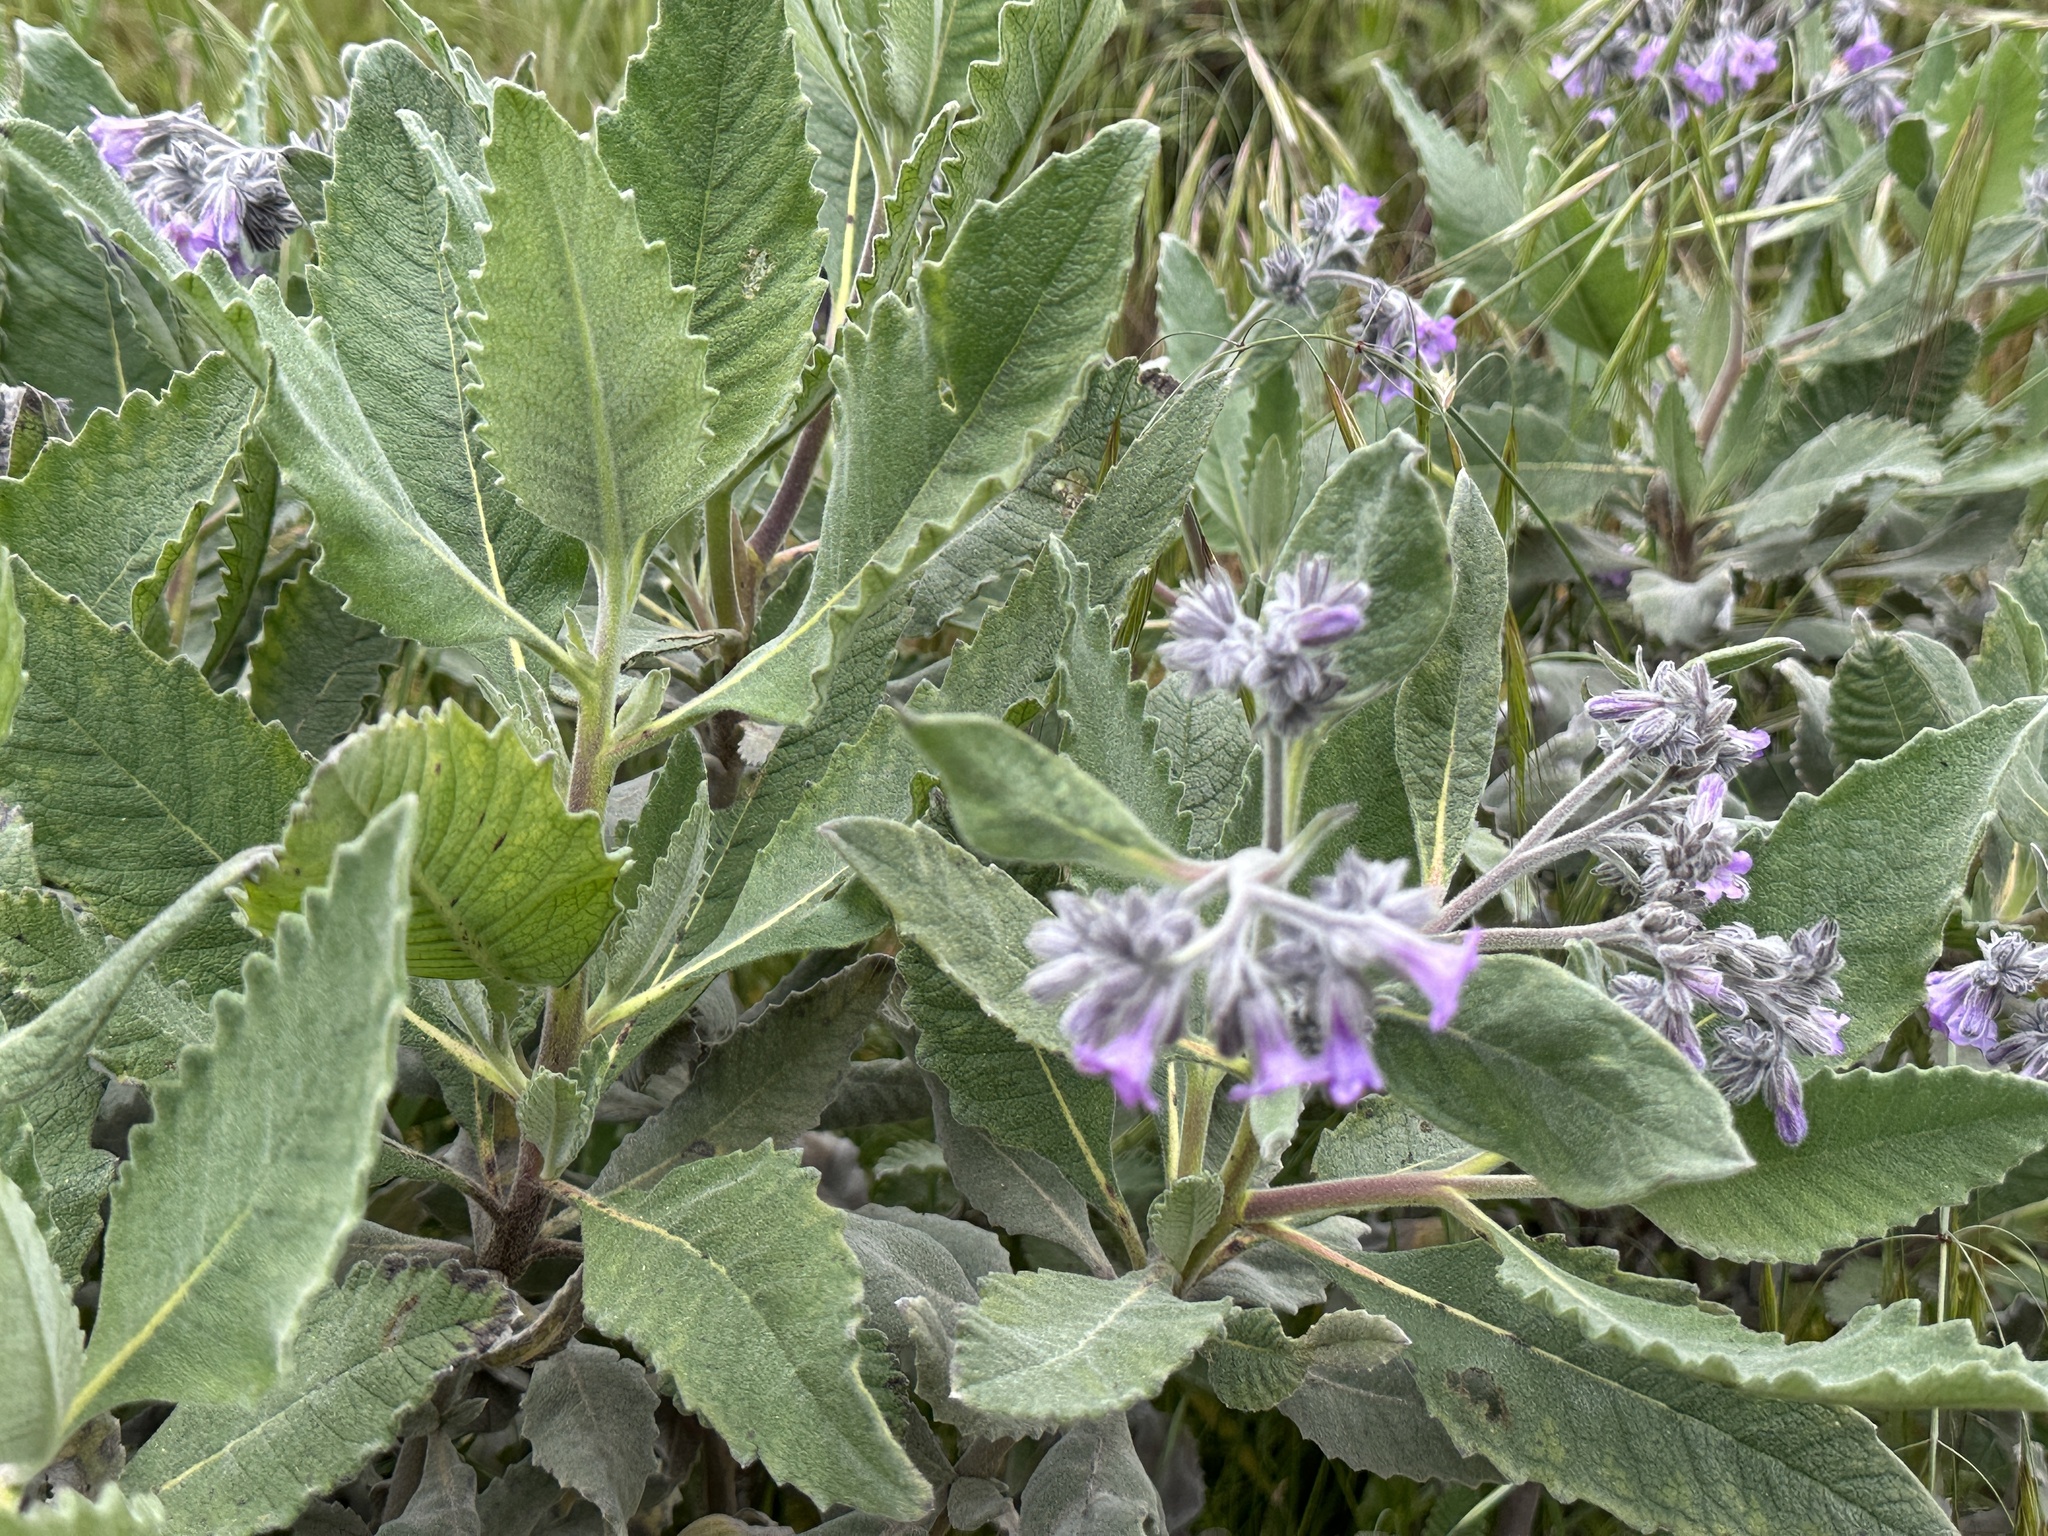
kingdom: Plantae
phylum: Tracheophyta
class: Magnoliopsida
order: Boraginales
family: Namaceae
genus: Eriodictyon
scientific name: Eriodictyon crassifolium
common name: Thick-leaf yerba-santa
